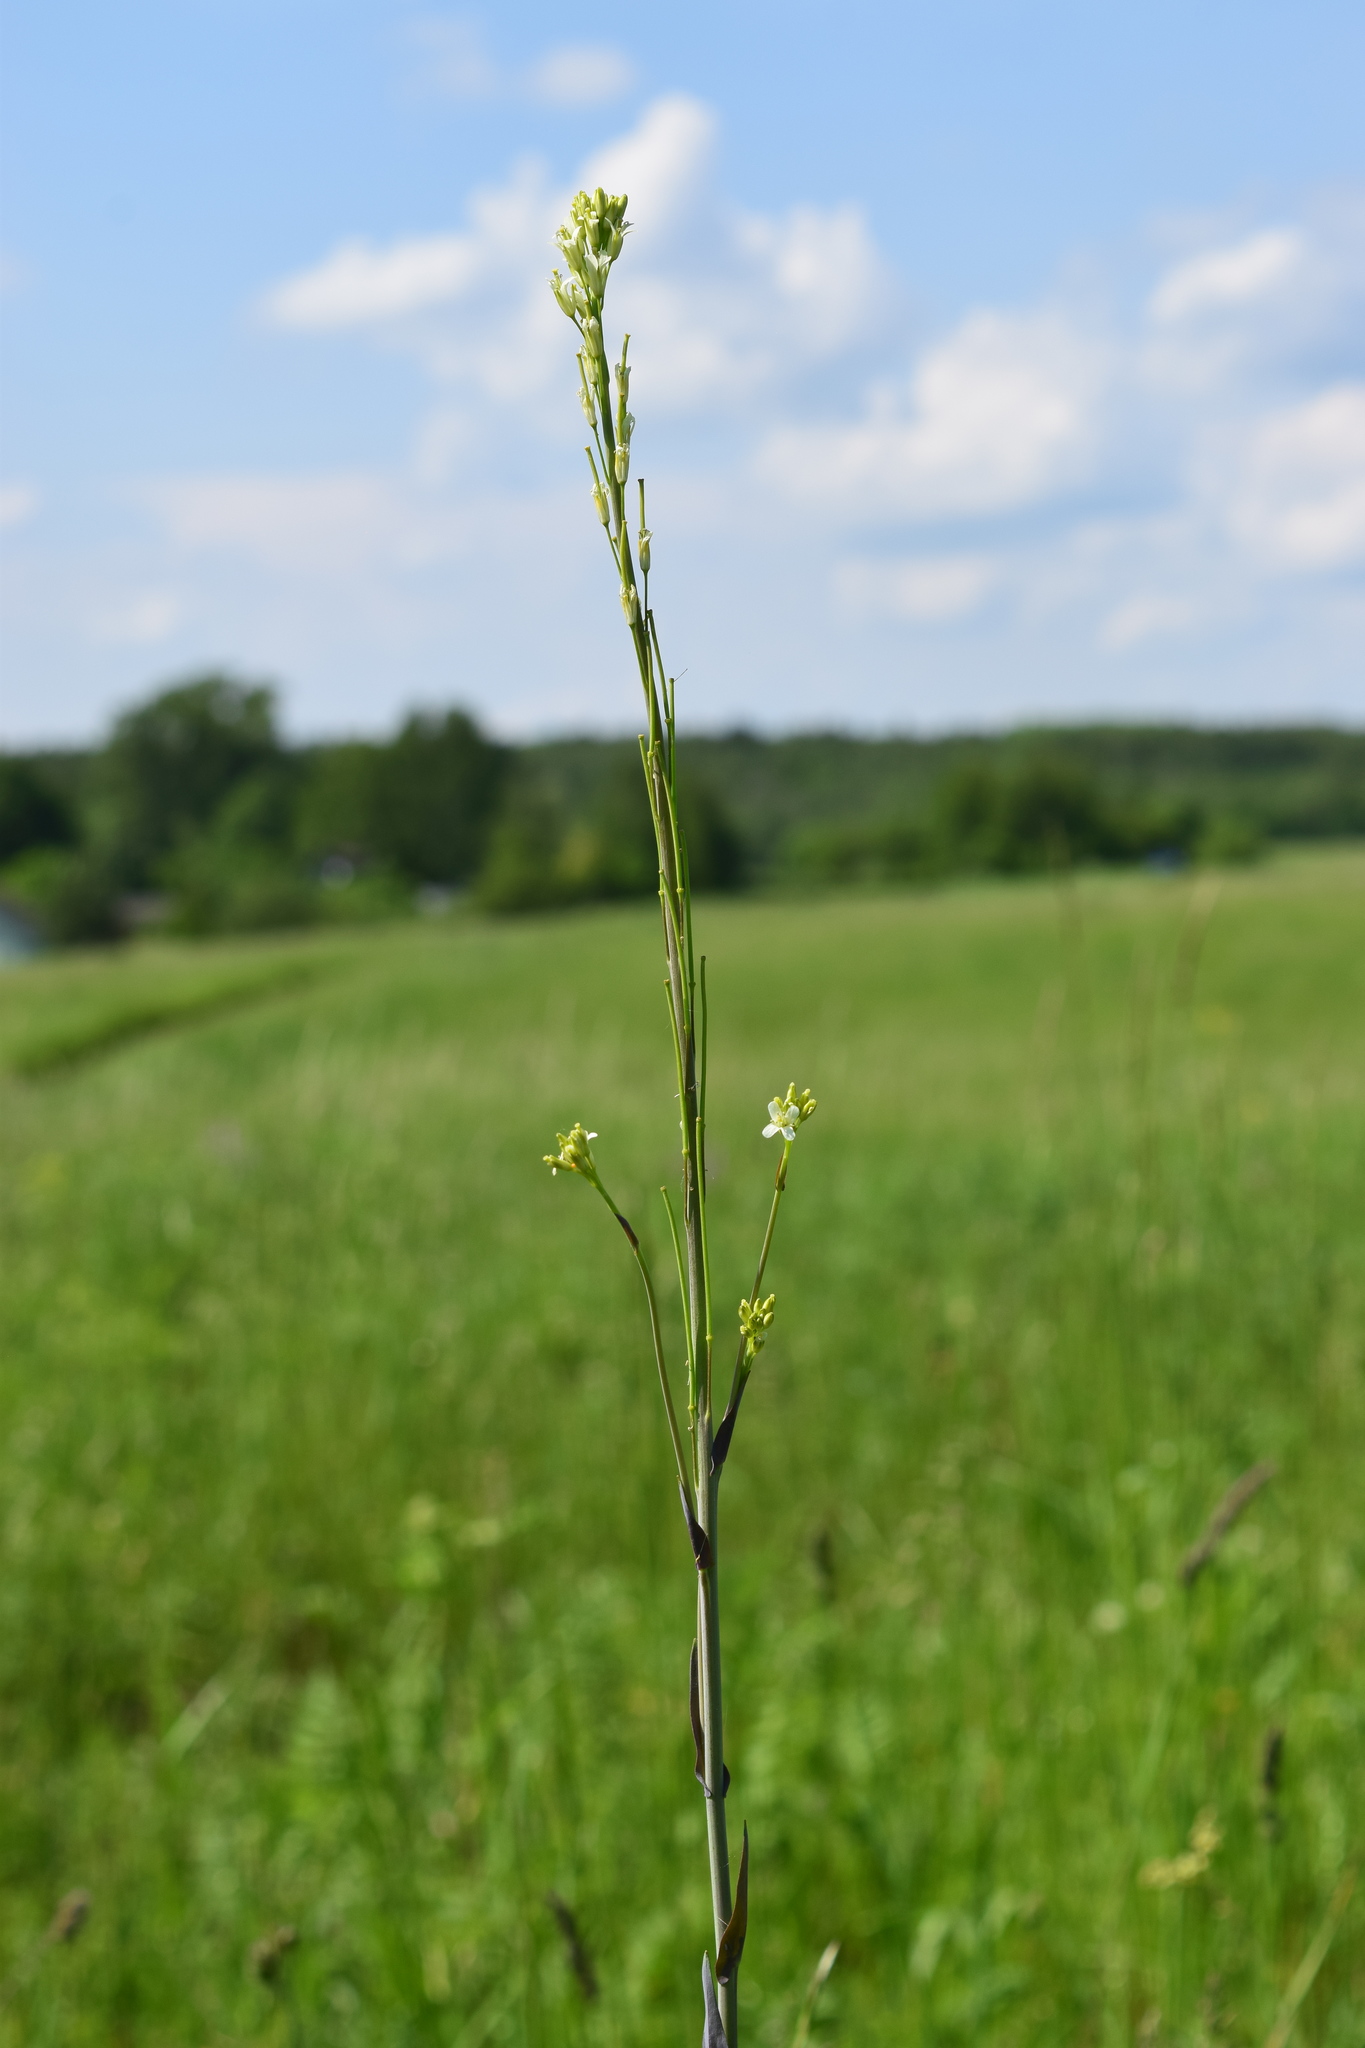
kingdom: Plantae
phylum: Tracheophyta
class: Magnoliopsida
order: Brassicales
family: Brassicaceae
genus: Turritis
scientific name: Turritis glabra
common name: Tower rockcress
